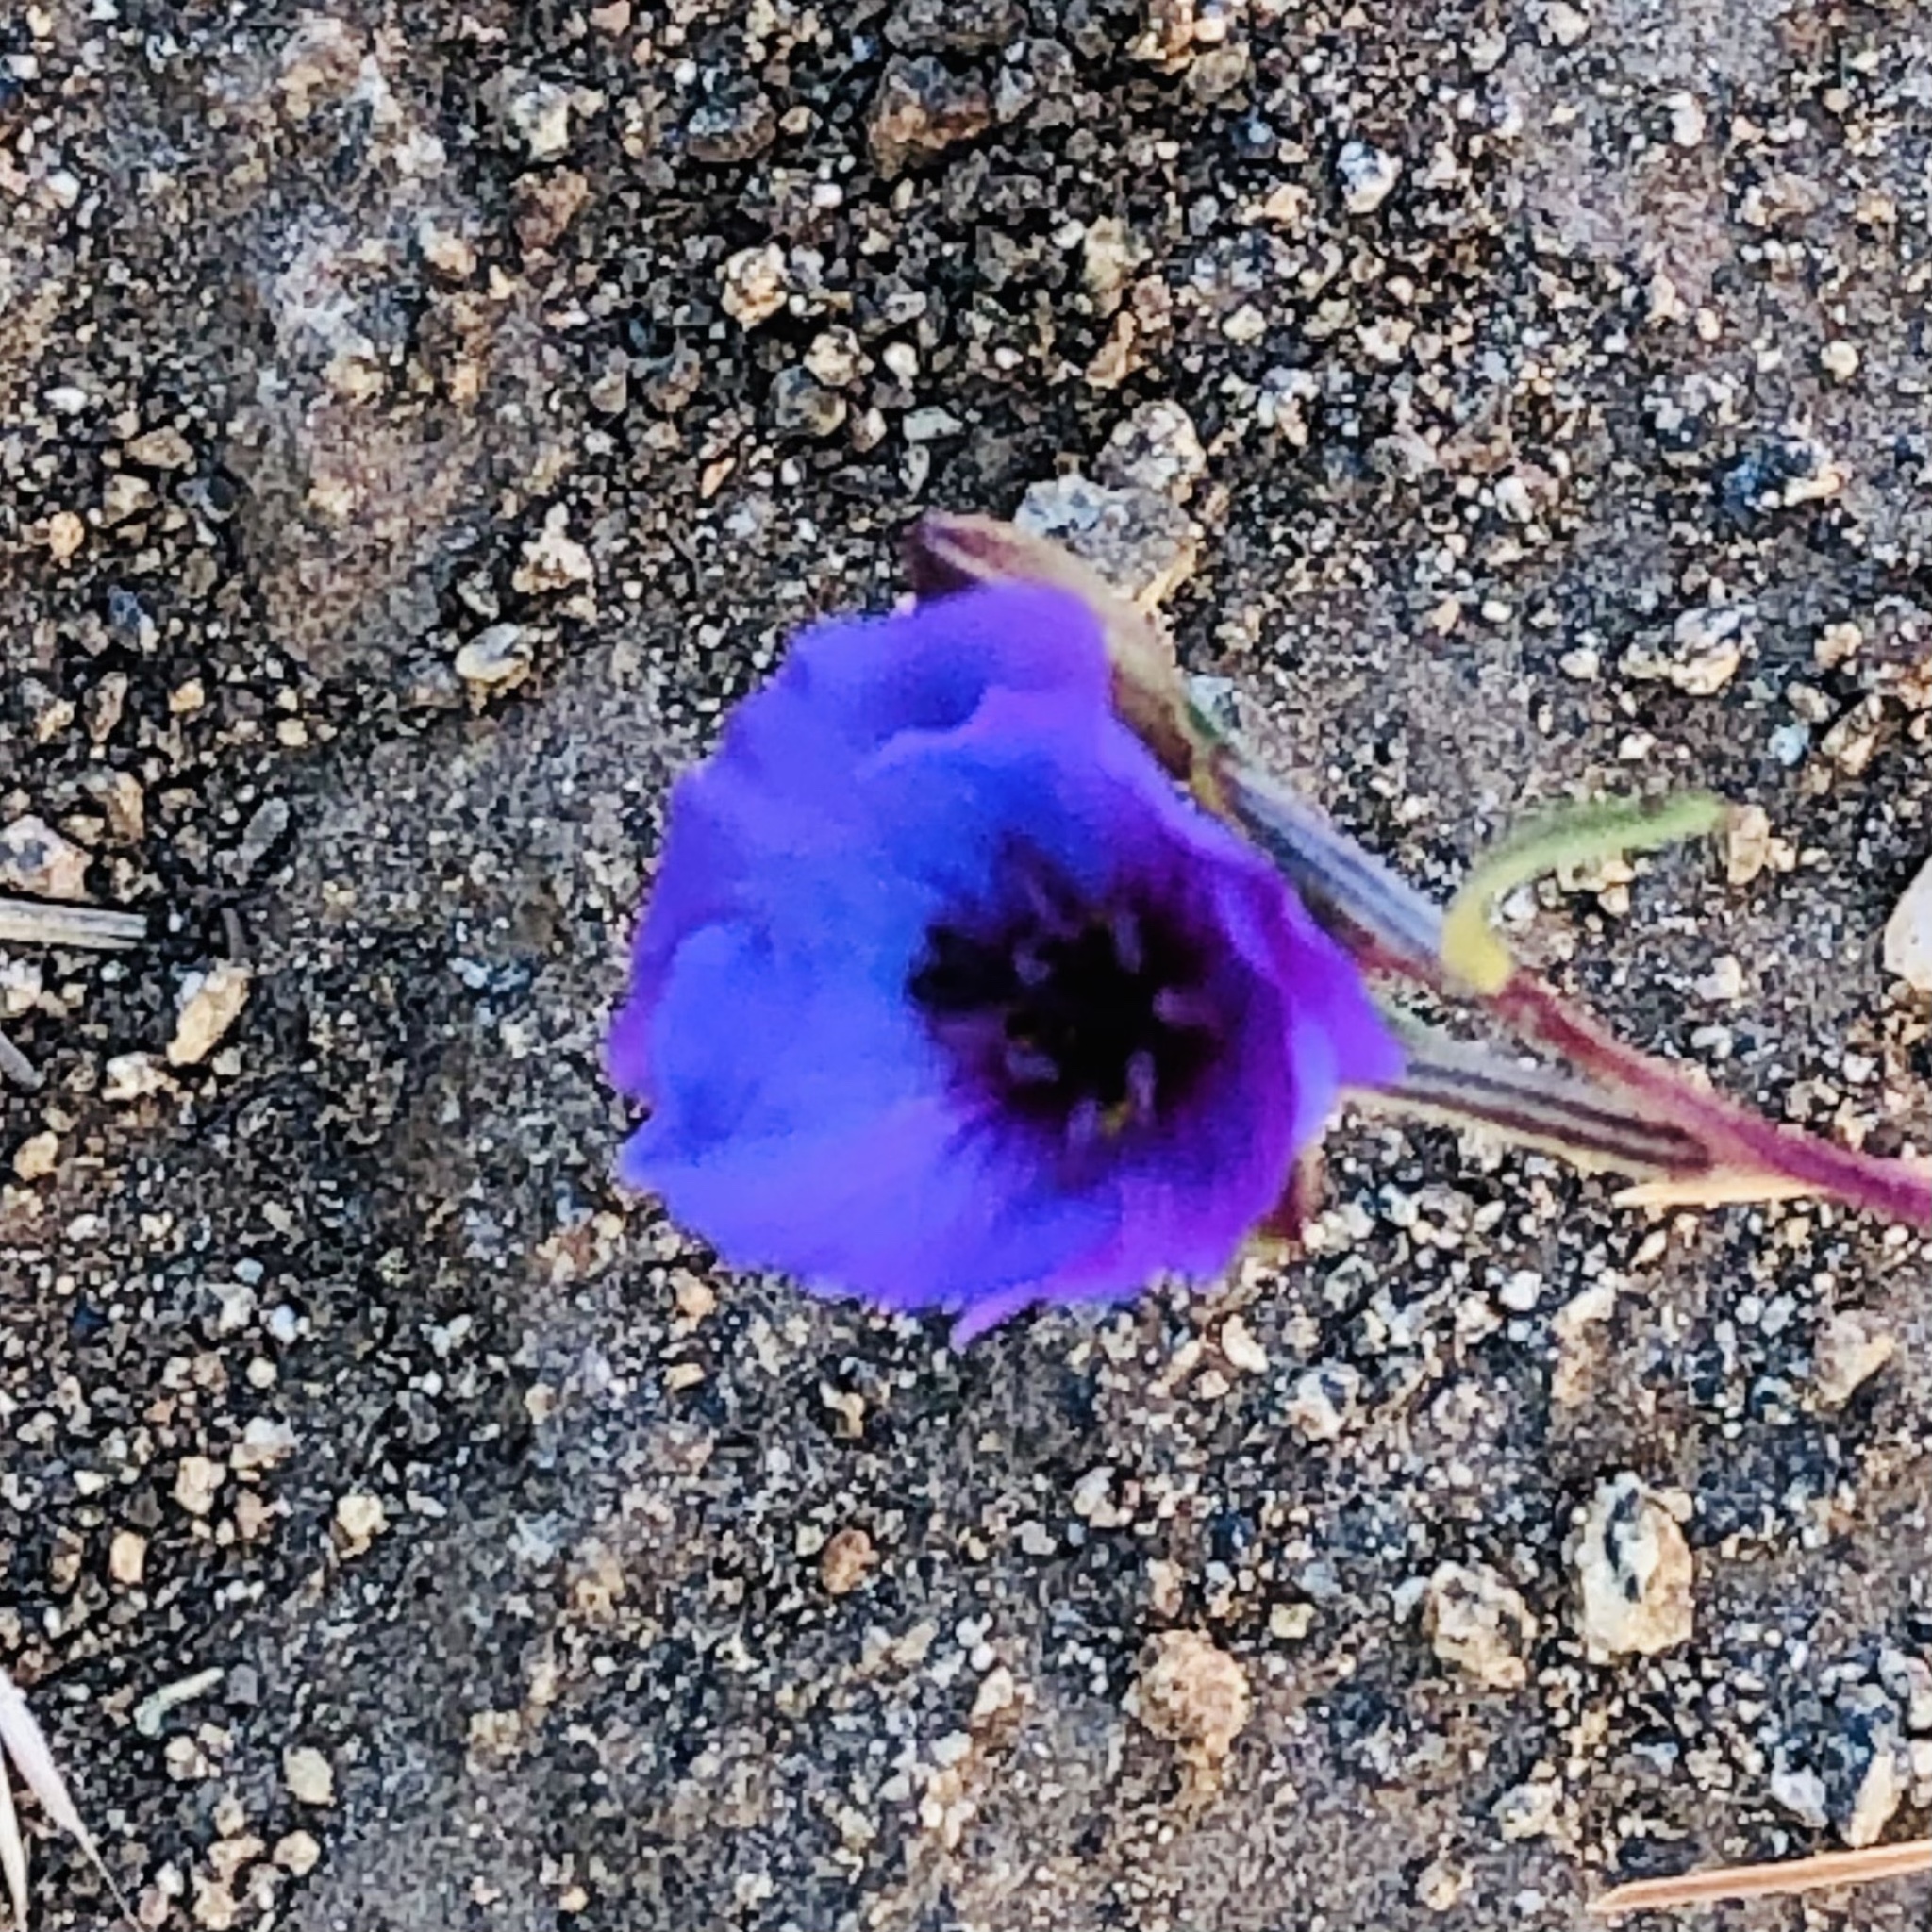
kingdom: Plantae
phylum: Tracheophyta
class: Magnoliopsida
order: Myrtales
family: Onagraceae
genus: Clarkia
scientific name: Clarkia tenella
